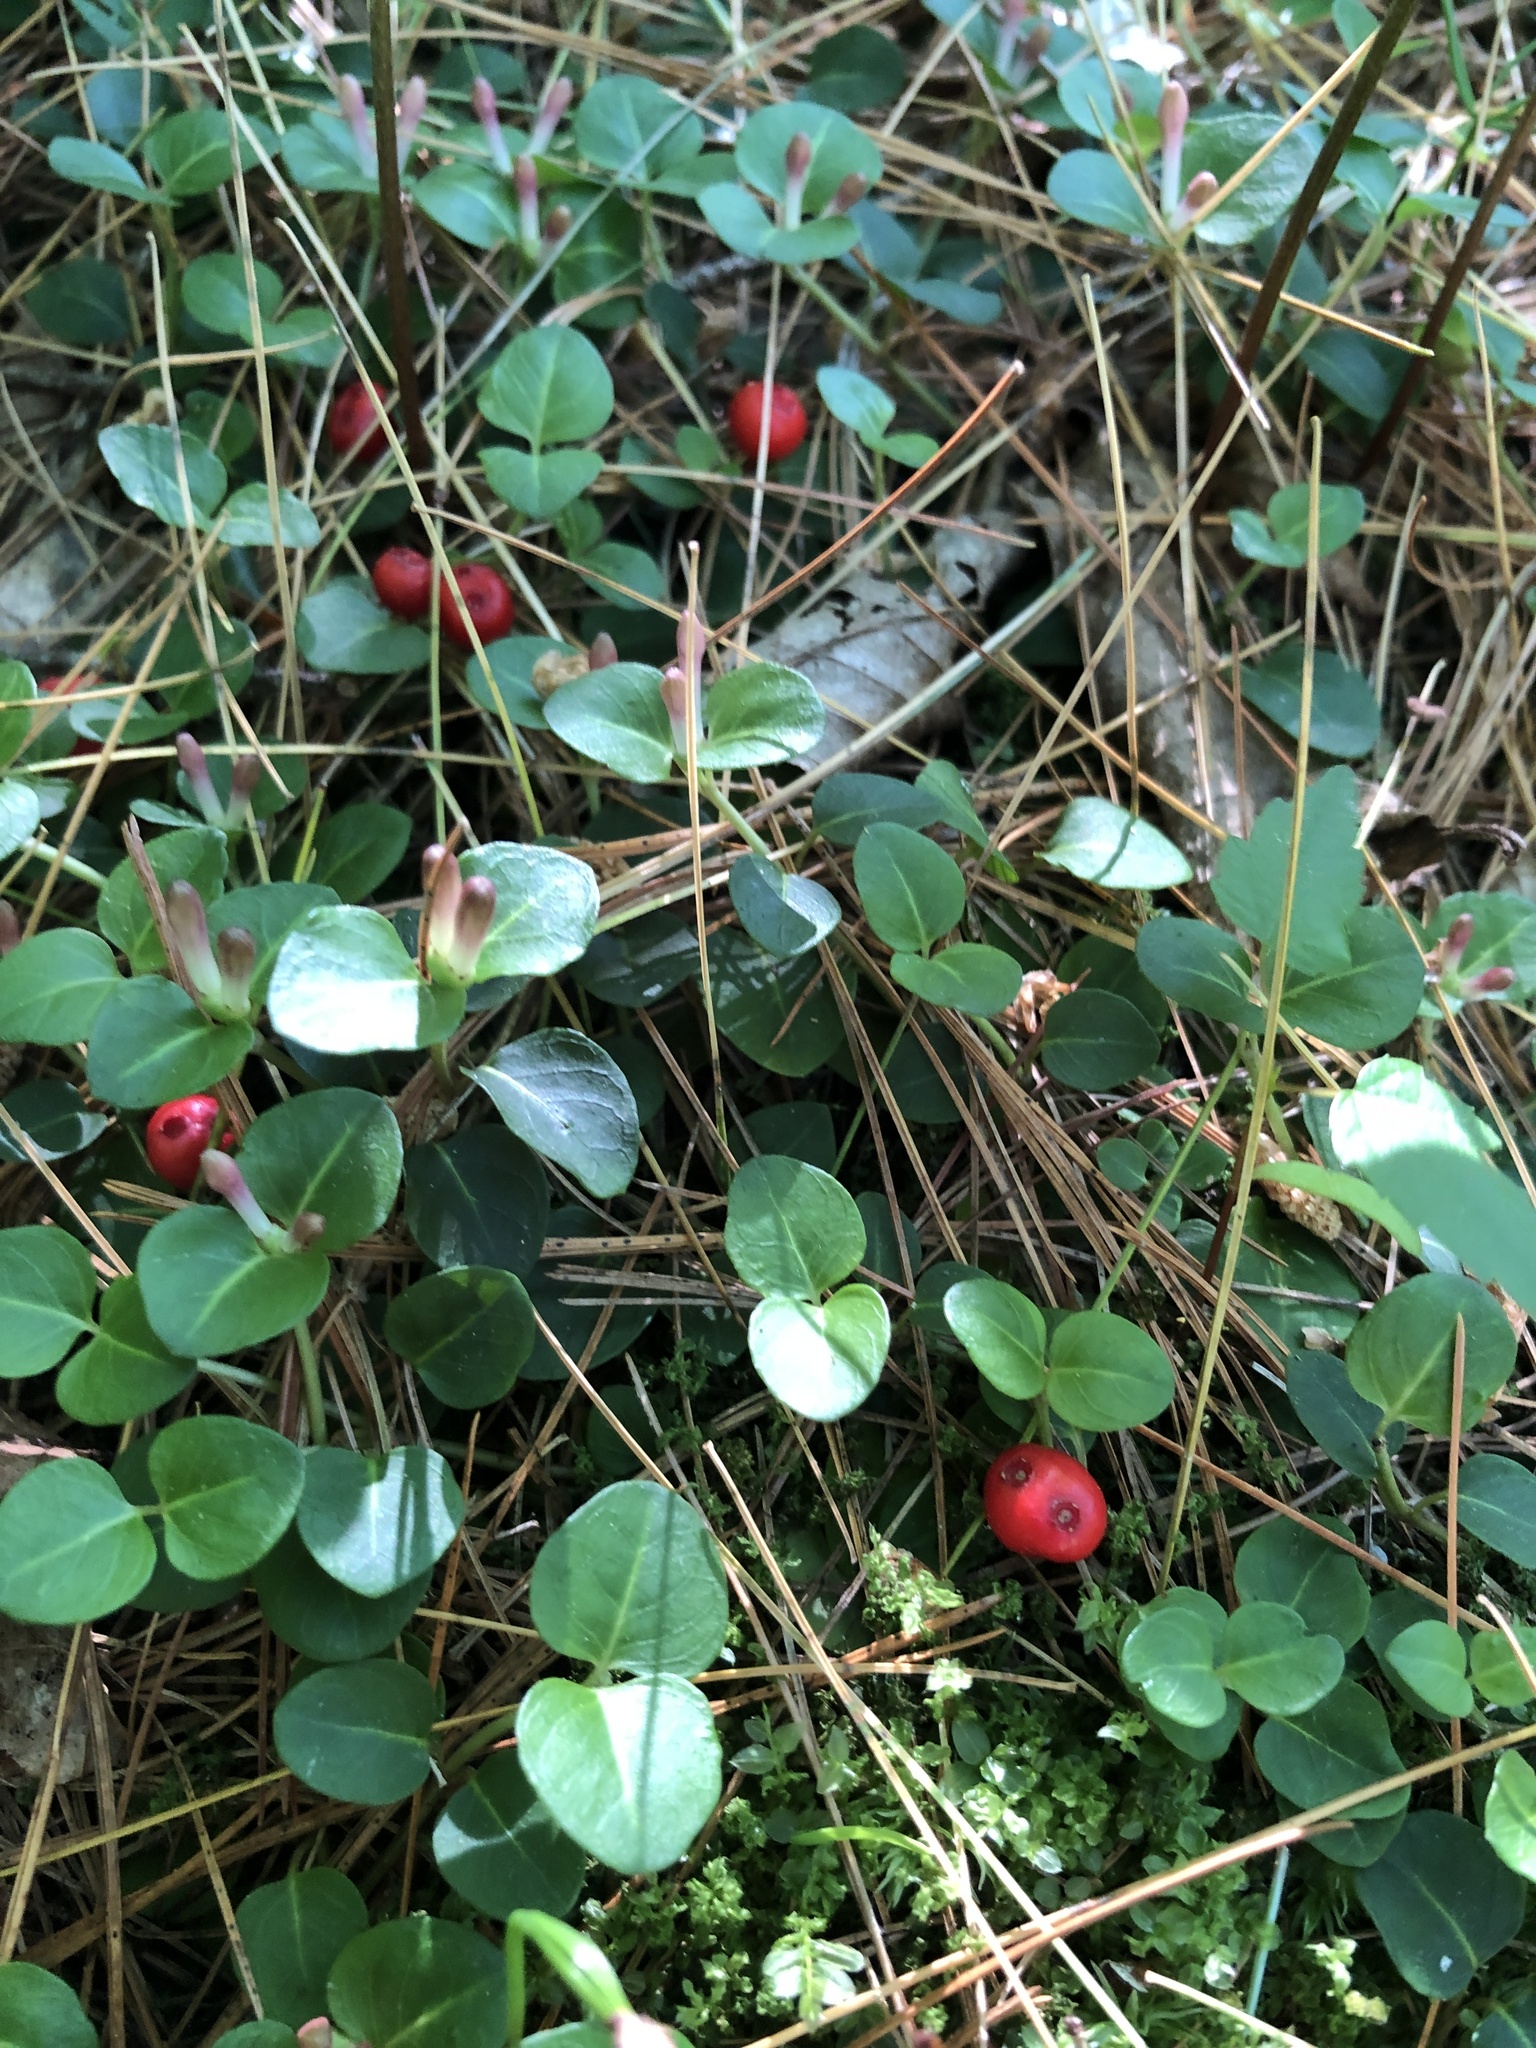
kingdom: Plantae
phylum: Tracheophyta
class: Magnoliopsida
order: Gentianales
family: Rubiaceae
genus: Mitchella
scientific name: Mitchella repens
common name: Partridge-berry
